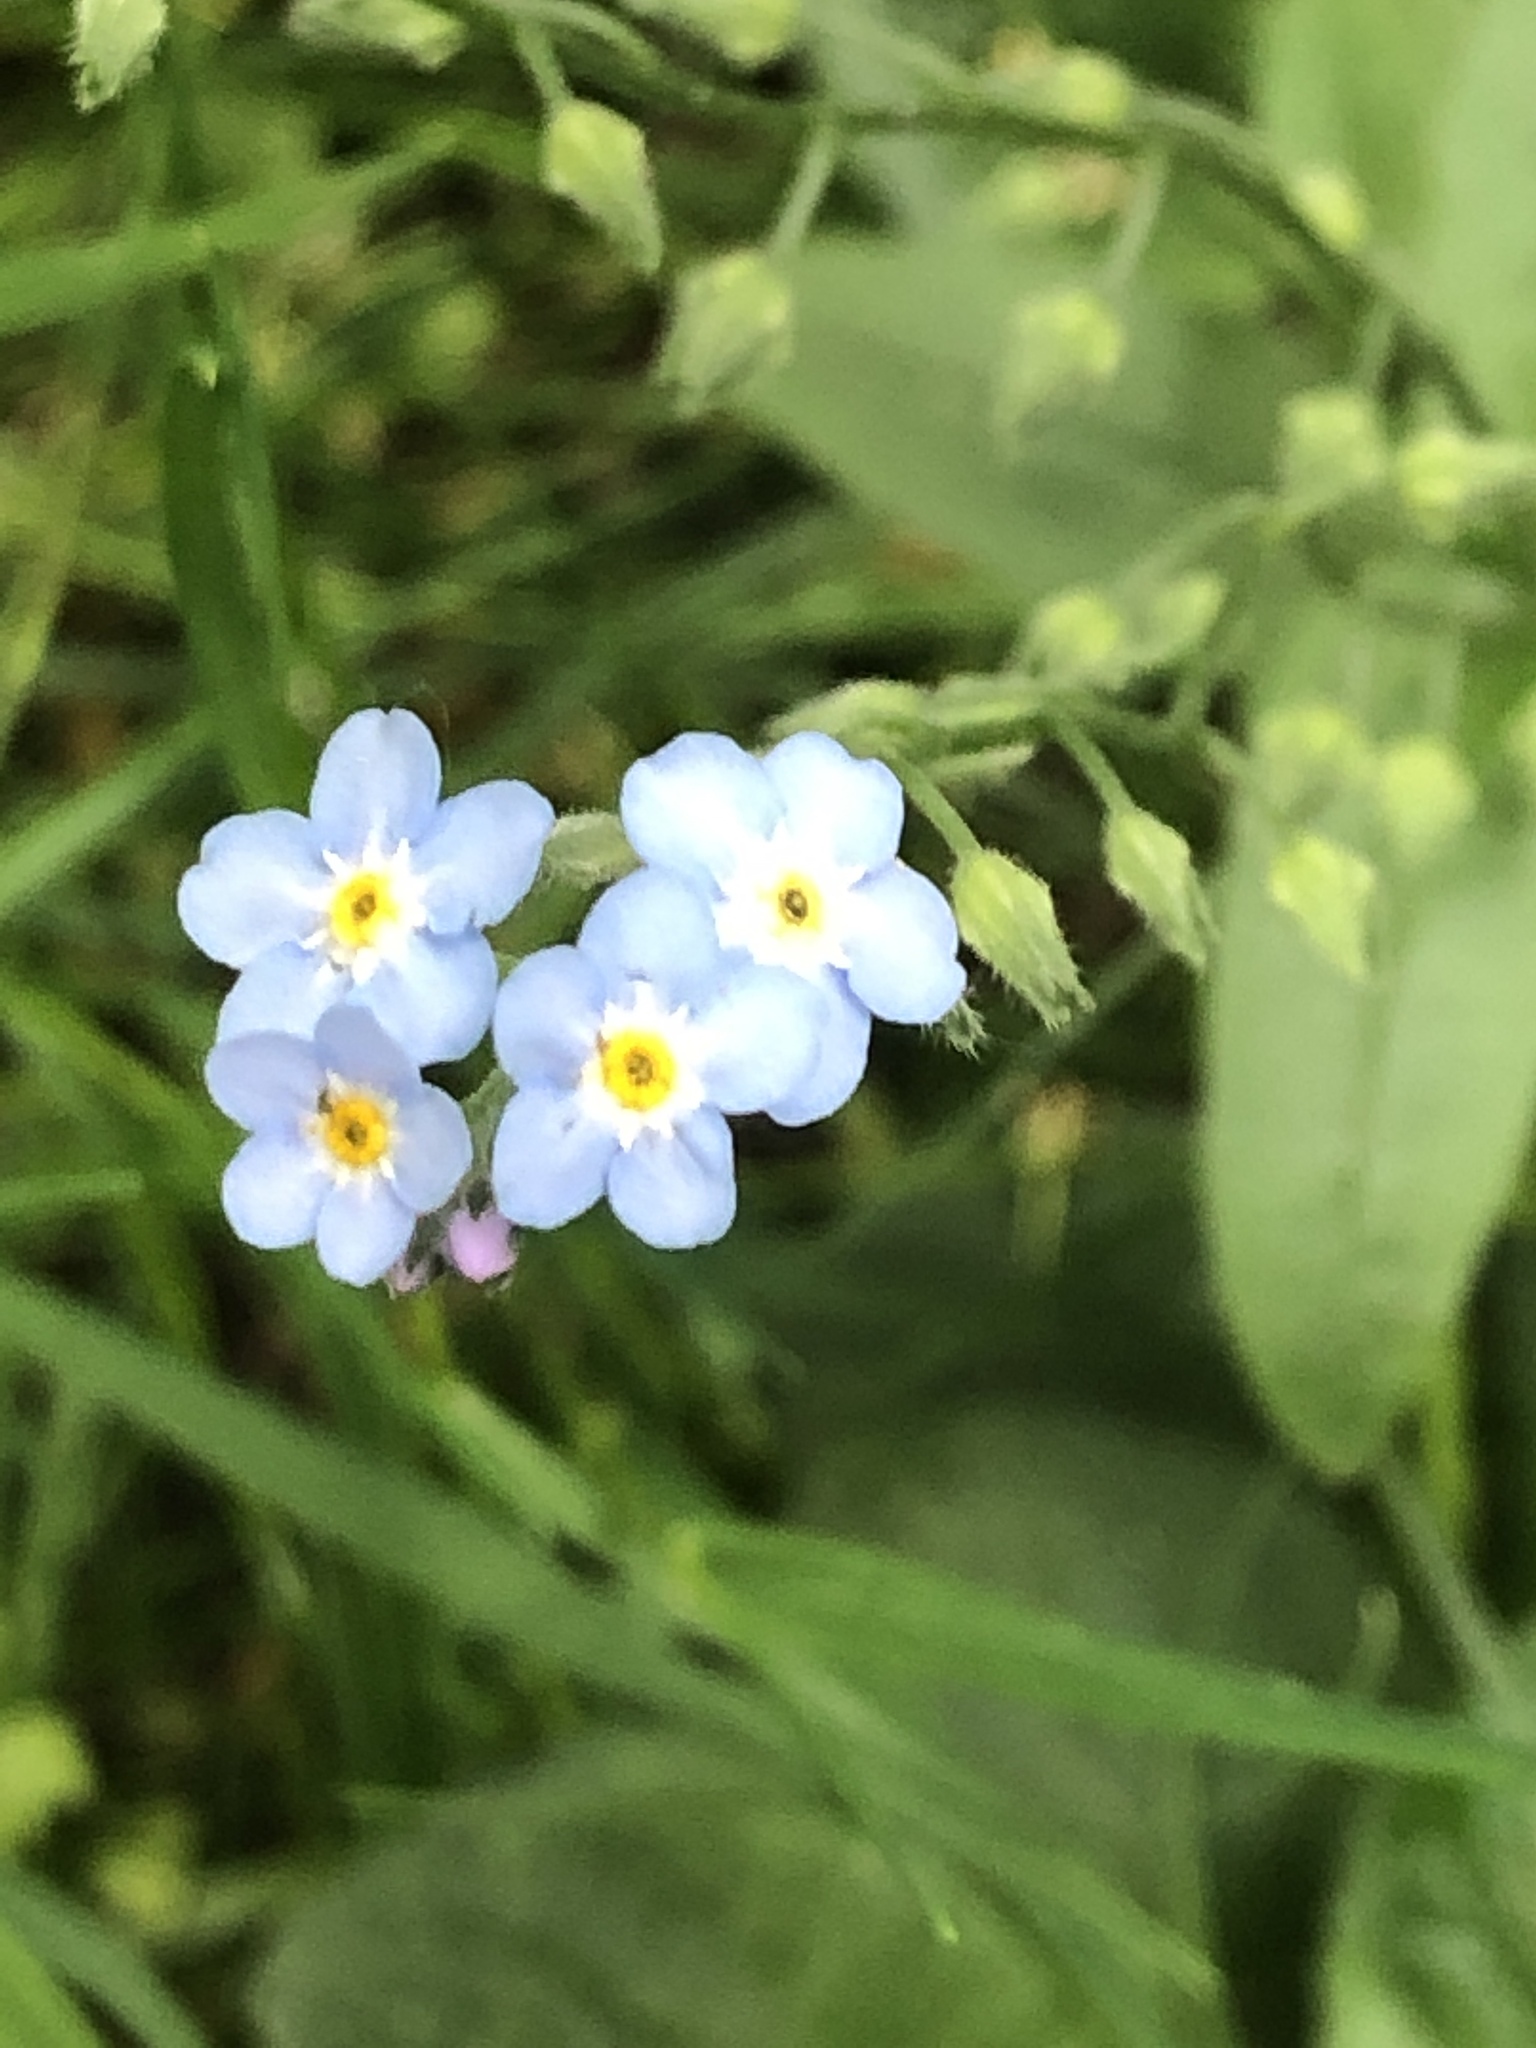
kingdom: Plantae
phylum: Tracheophyta
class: Magnoliopsida
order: Boraginales
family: Boraginaceae
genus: Myosotis
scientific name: Myosotis sylvatica
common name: Wood forget-me-not
